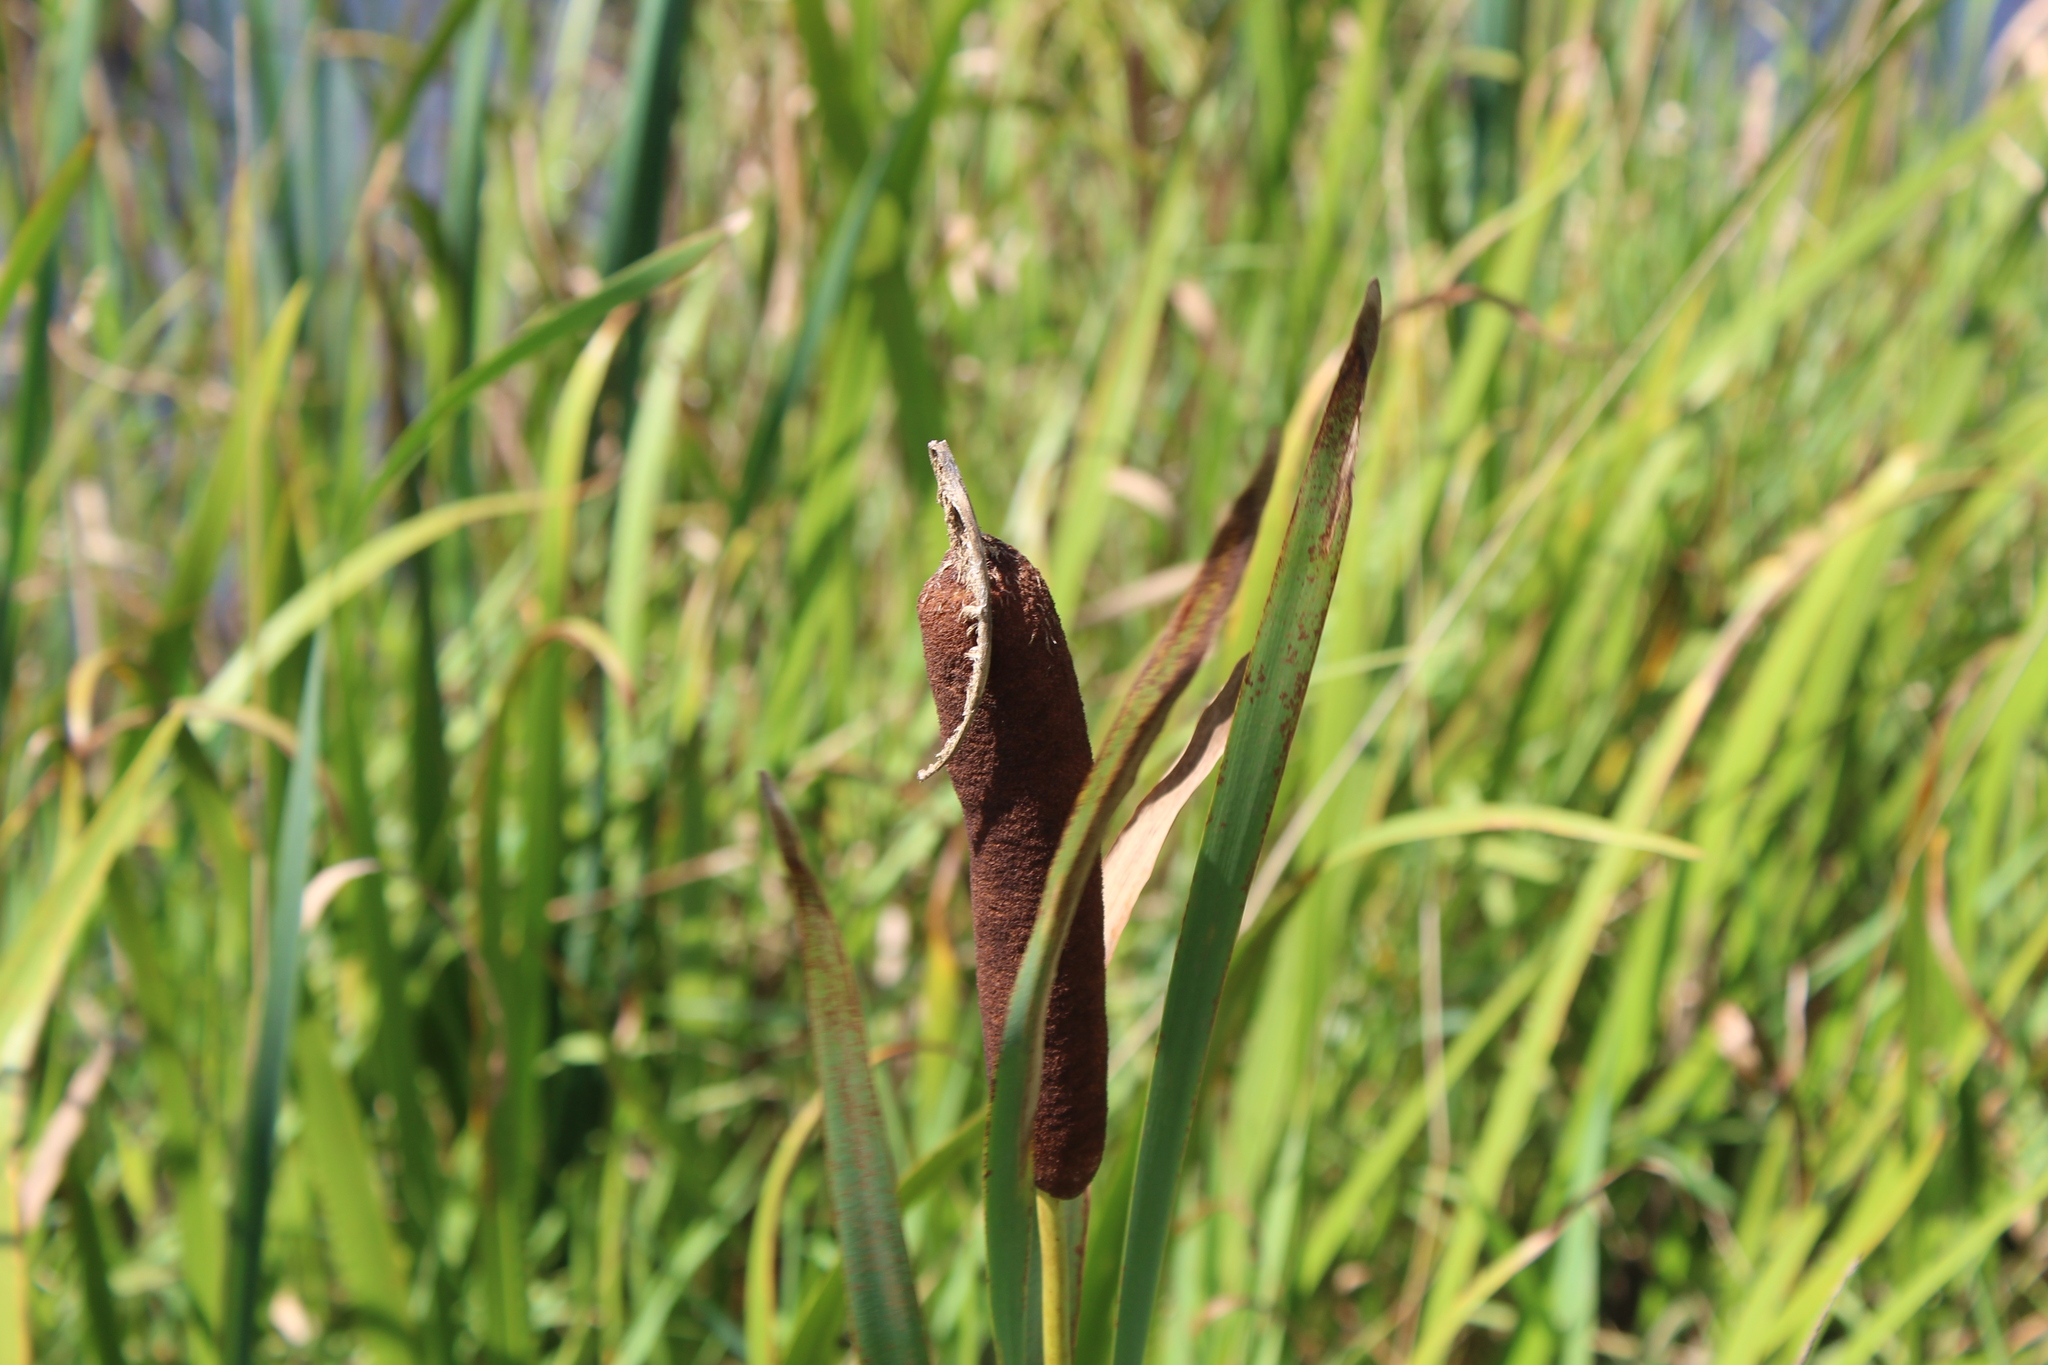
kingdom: Plantae
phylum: Tracheophyta
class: Liliopsida
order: Poales
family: Typhaceae
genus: Typha
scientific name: Typha latifolia
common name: Broadleaf cattail
